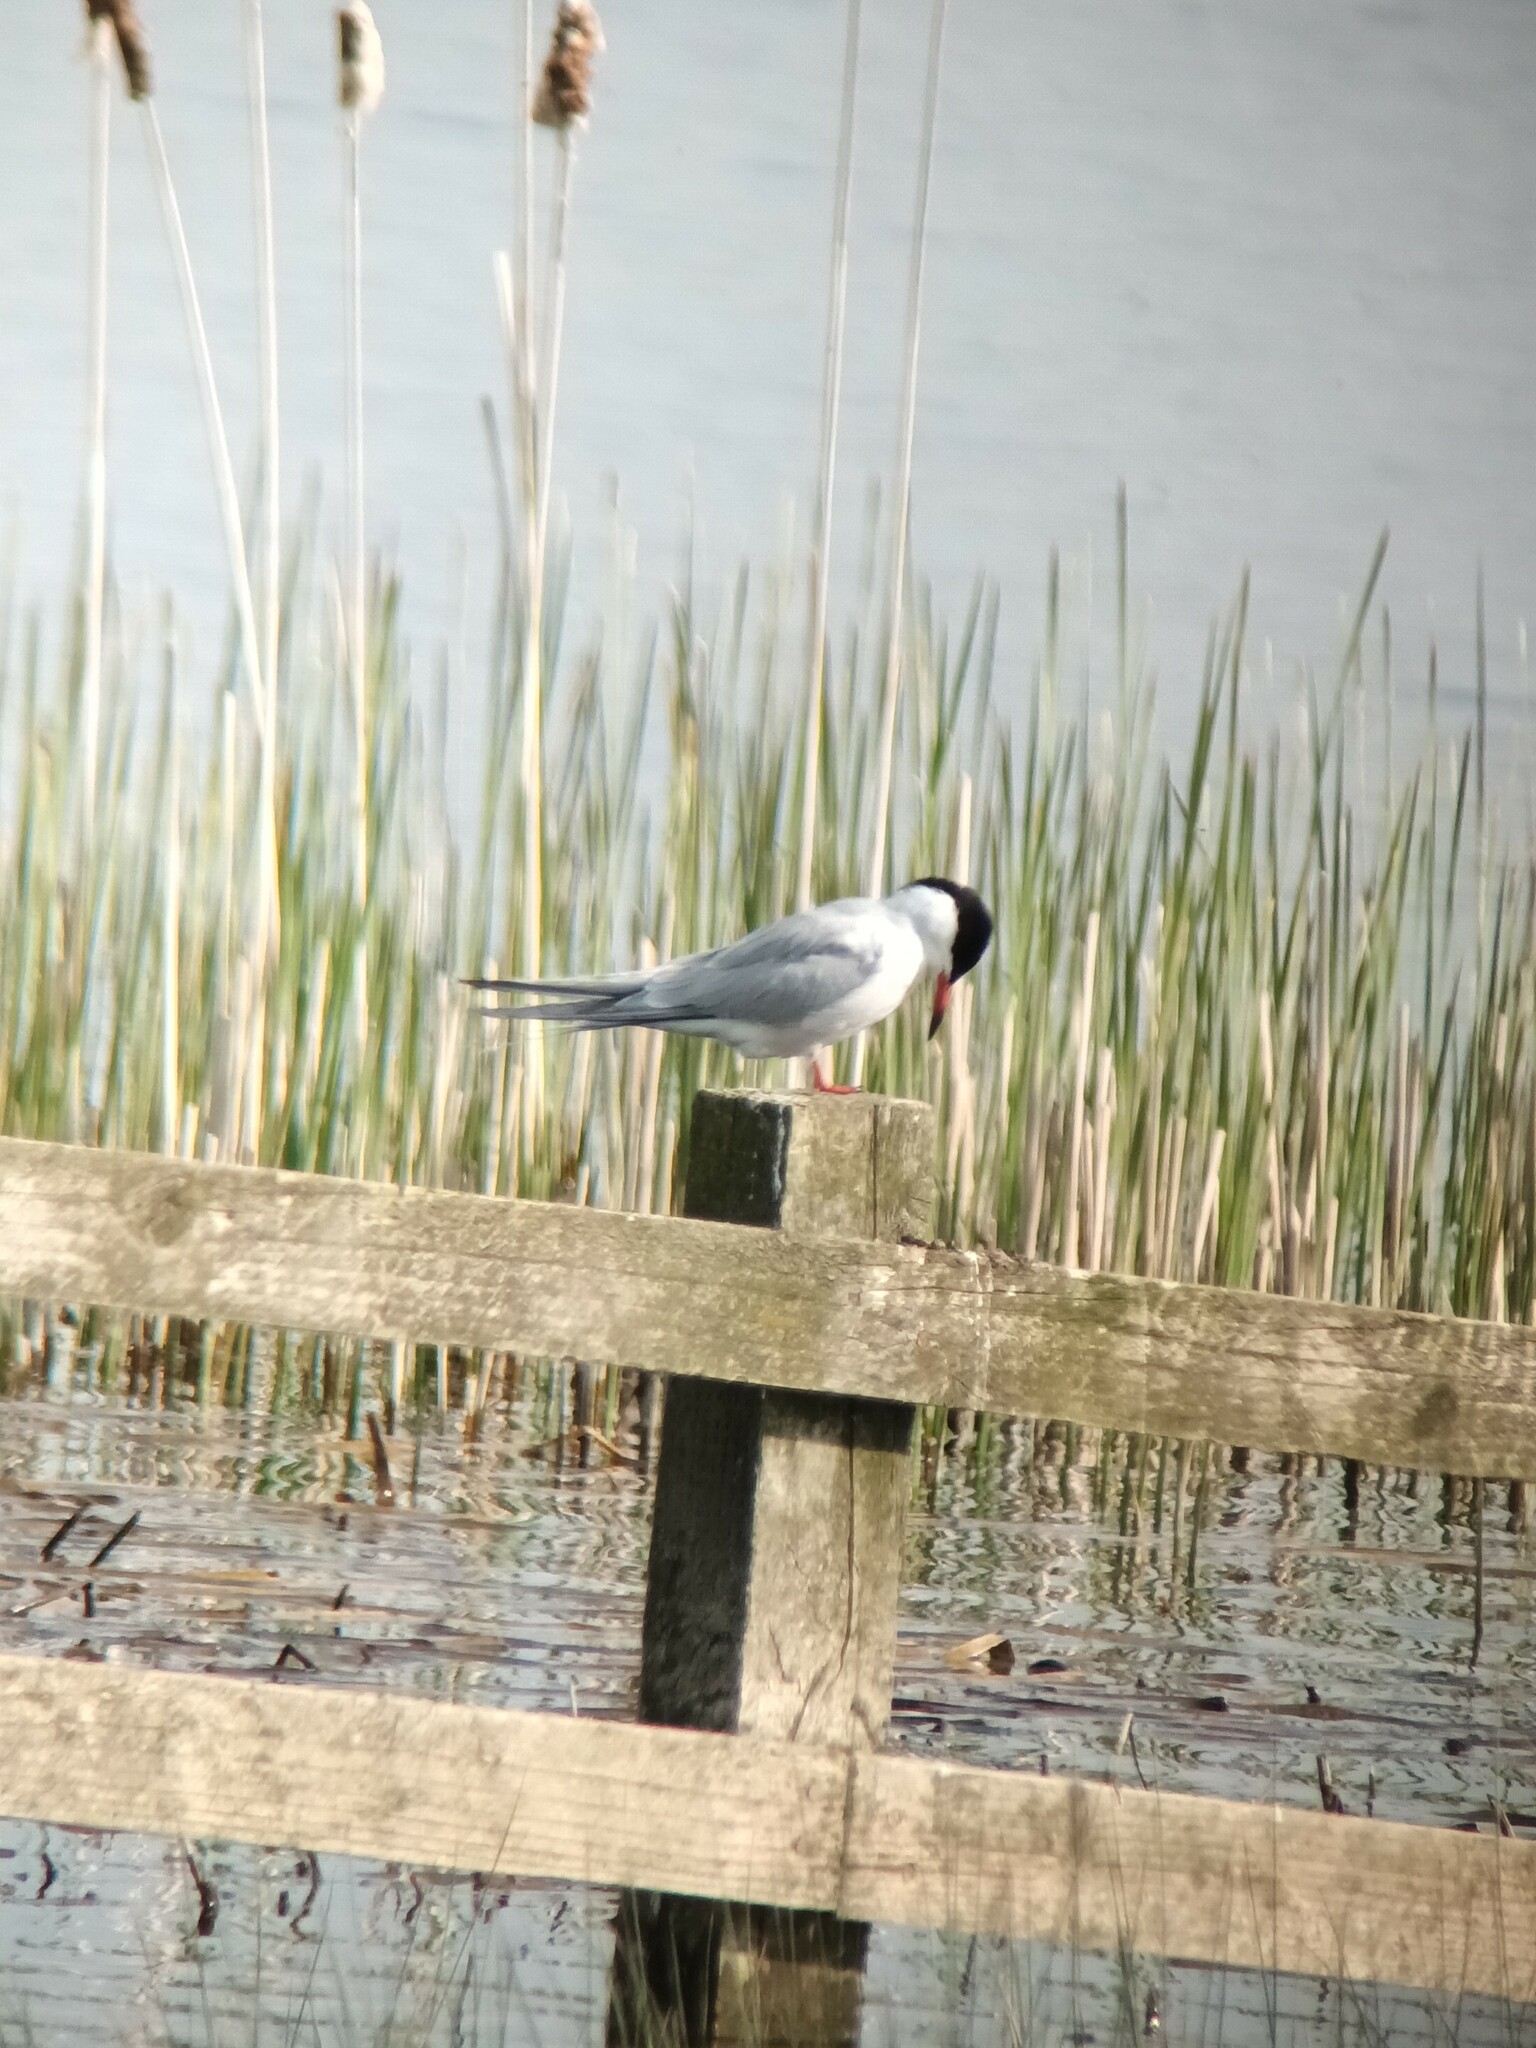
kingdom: Animalia
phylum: Chordata
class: Aves
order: Charadriiformes
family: Laridae
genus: Sterna
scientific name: Sterna hirundo
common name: Common tern
